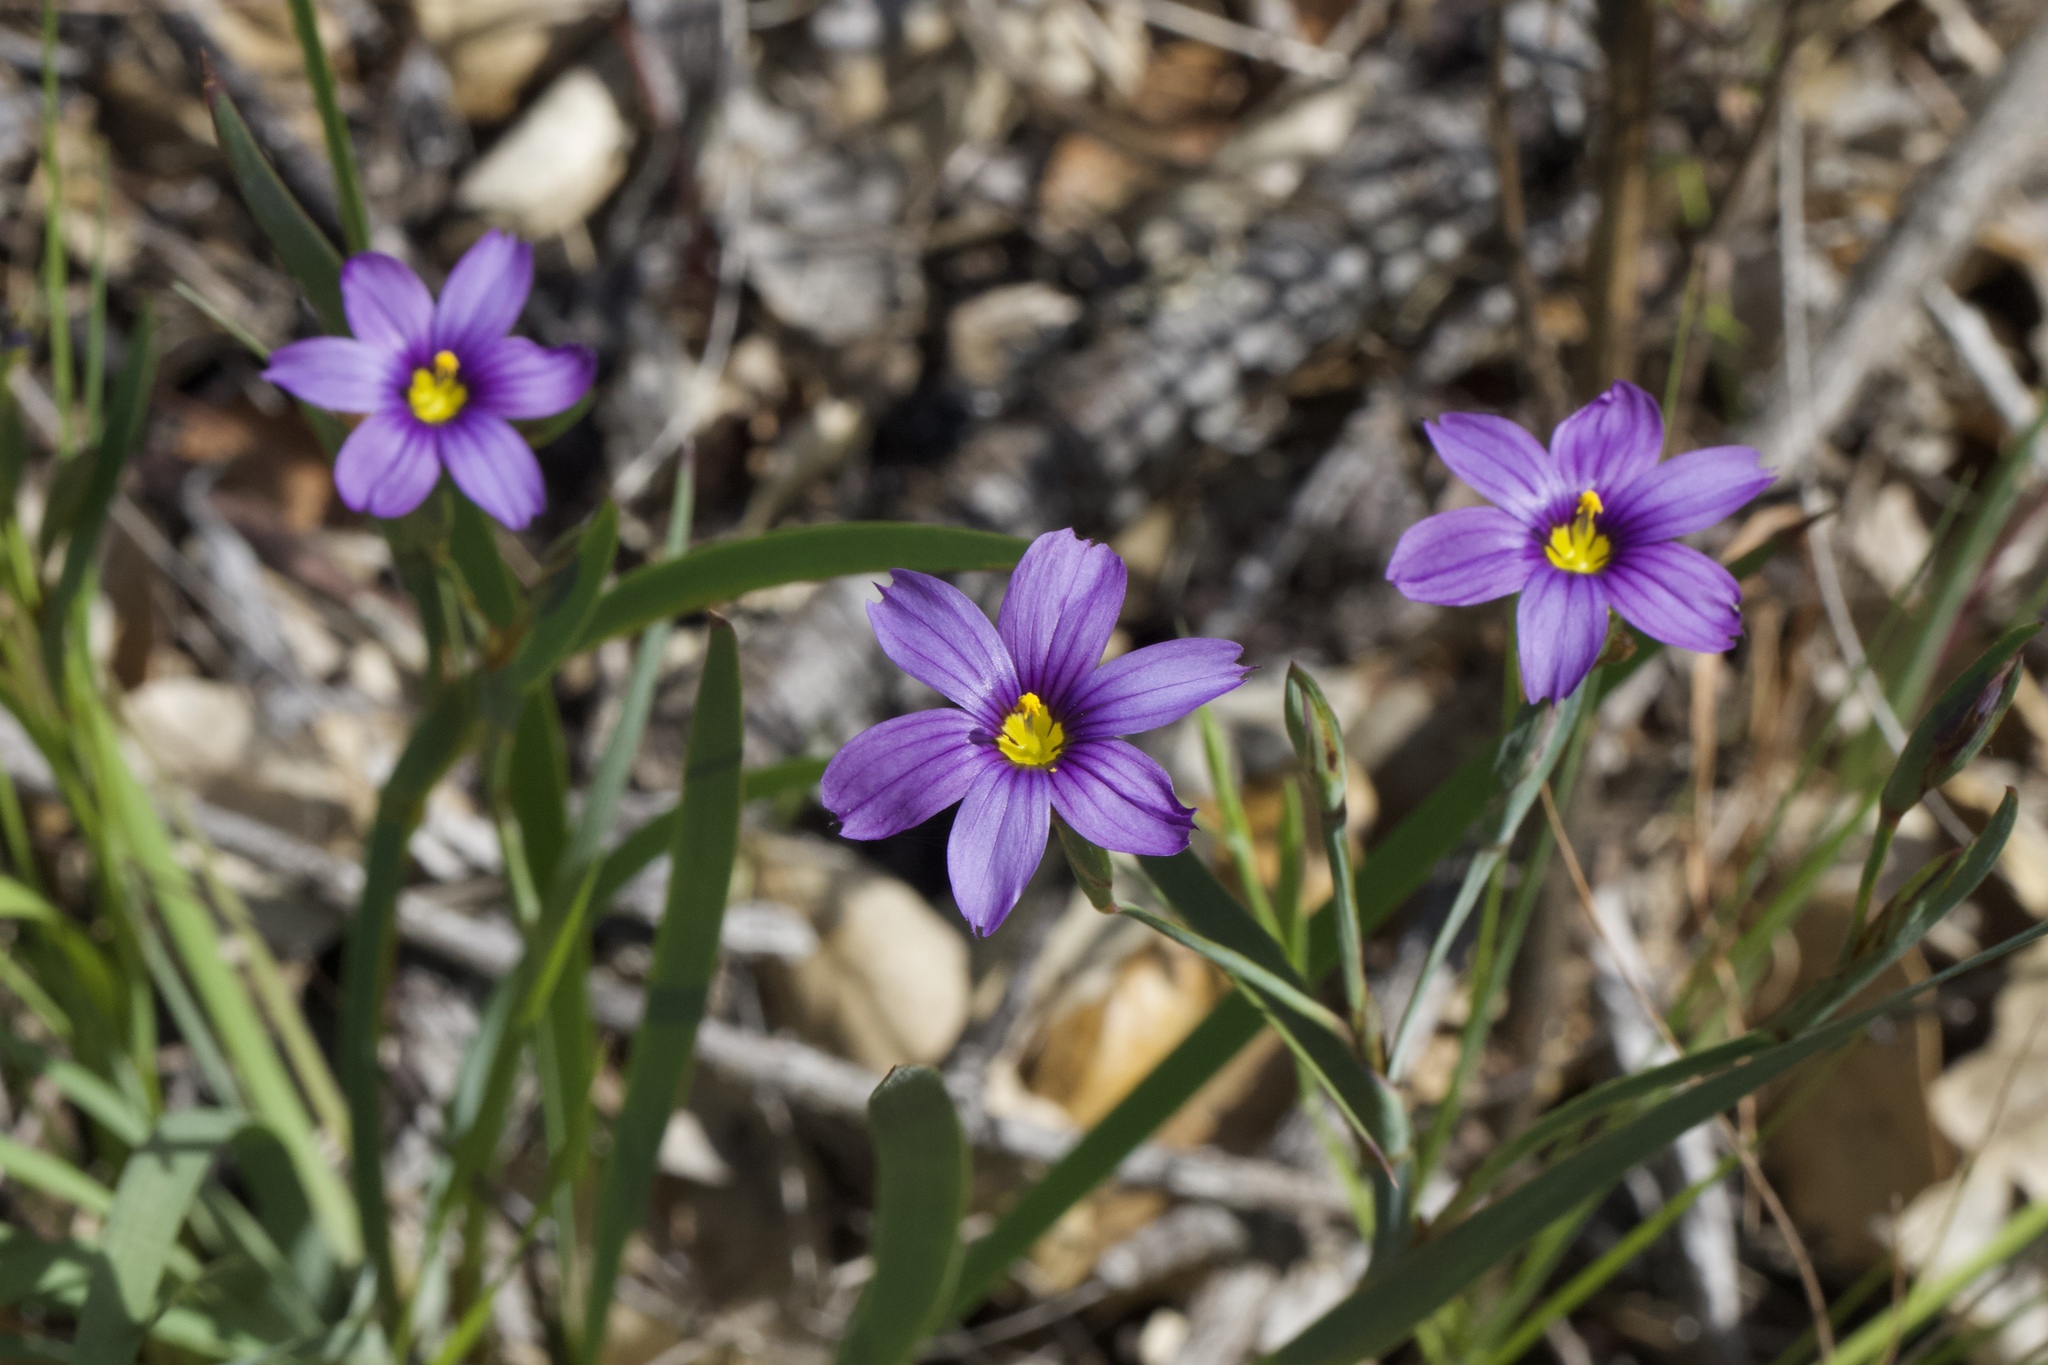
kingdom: Plantae
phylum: Tracheophyta
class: Liliopsida
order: Asparagales
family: Iridaceae
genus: Sisyrinchium
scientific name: Sisyrinchium bellum
